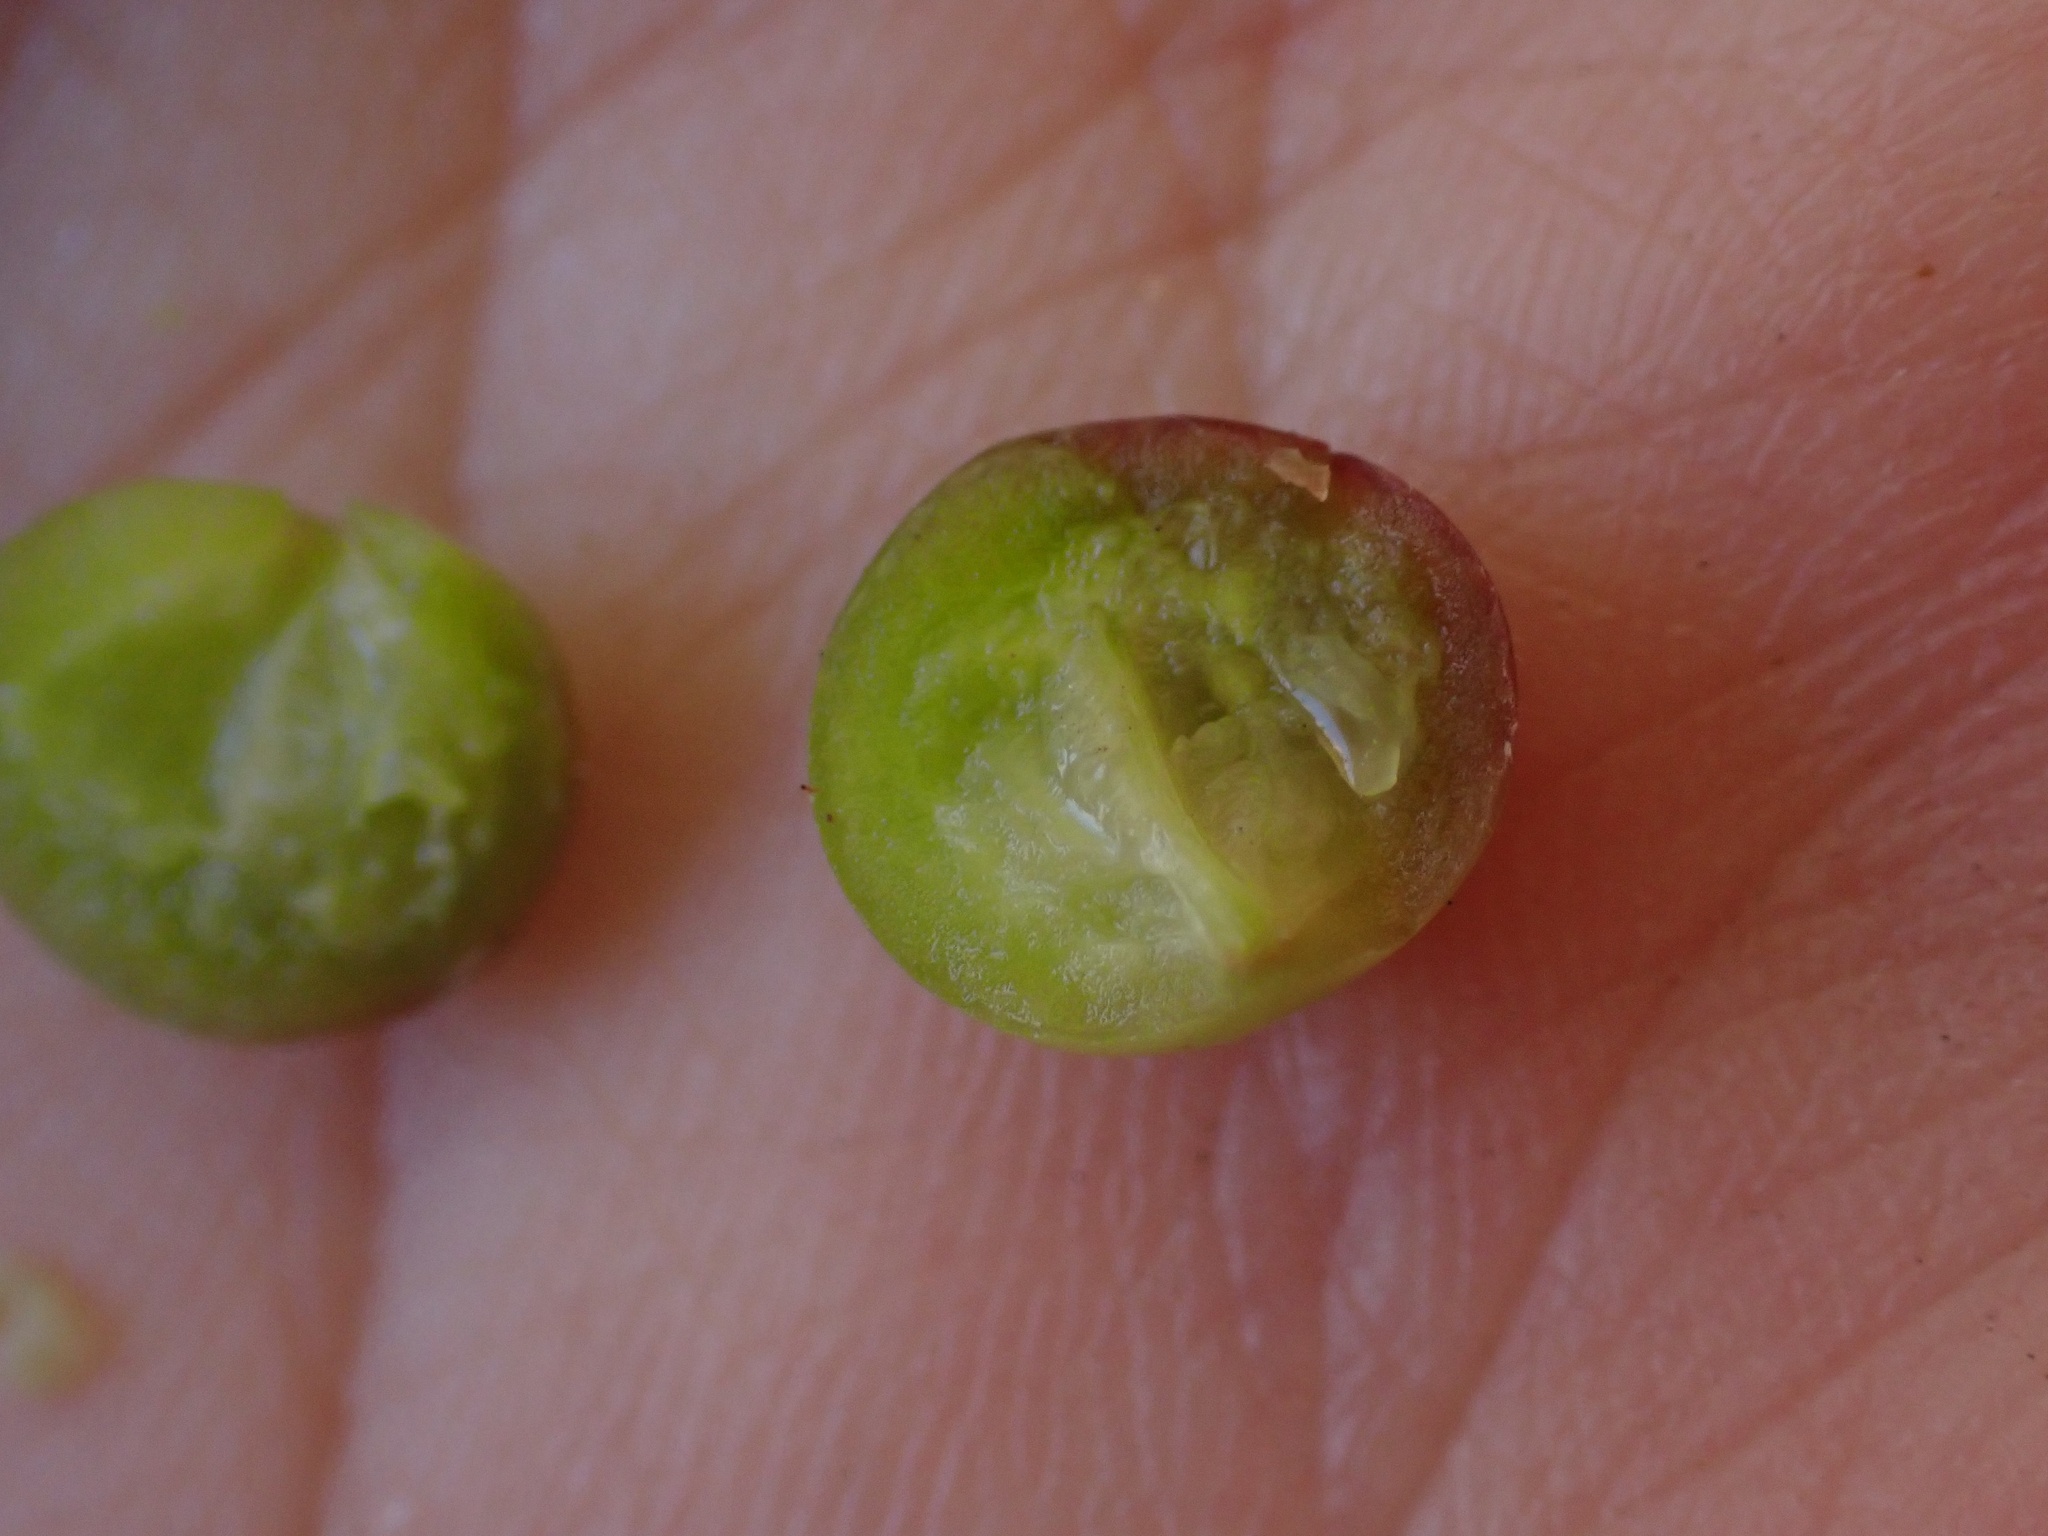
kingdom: Plantae
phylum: Tracheophyta
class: Magnoliopsida
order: Ericales
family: Ericaceae
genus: Arctostaphylos
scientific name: Arctostaphylos parryana
